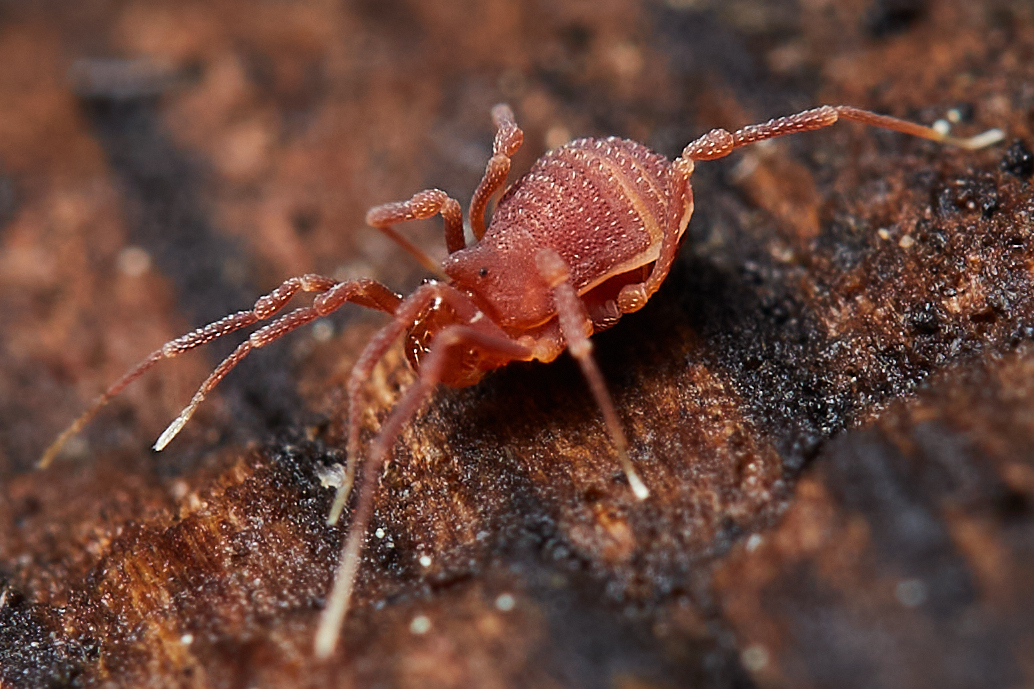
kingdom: Animalia
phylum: Arthropoda
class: Arachnida
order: Opiliones
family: Phalangodidae
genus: Sitalcina
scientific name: Sitalcina californica
